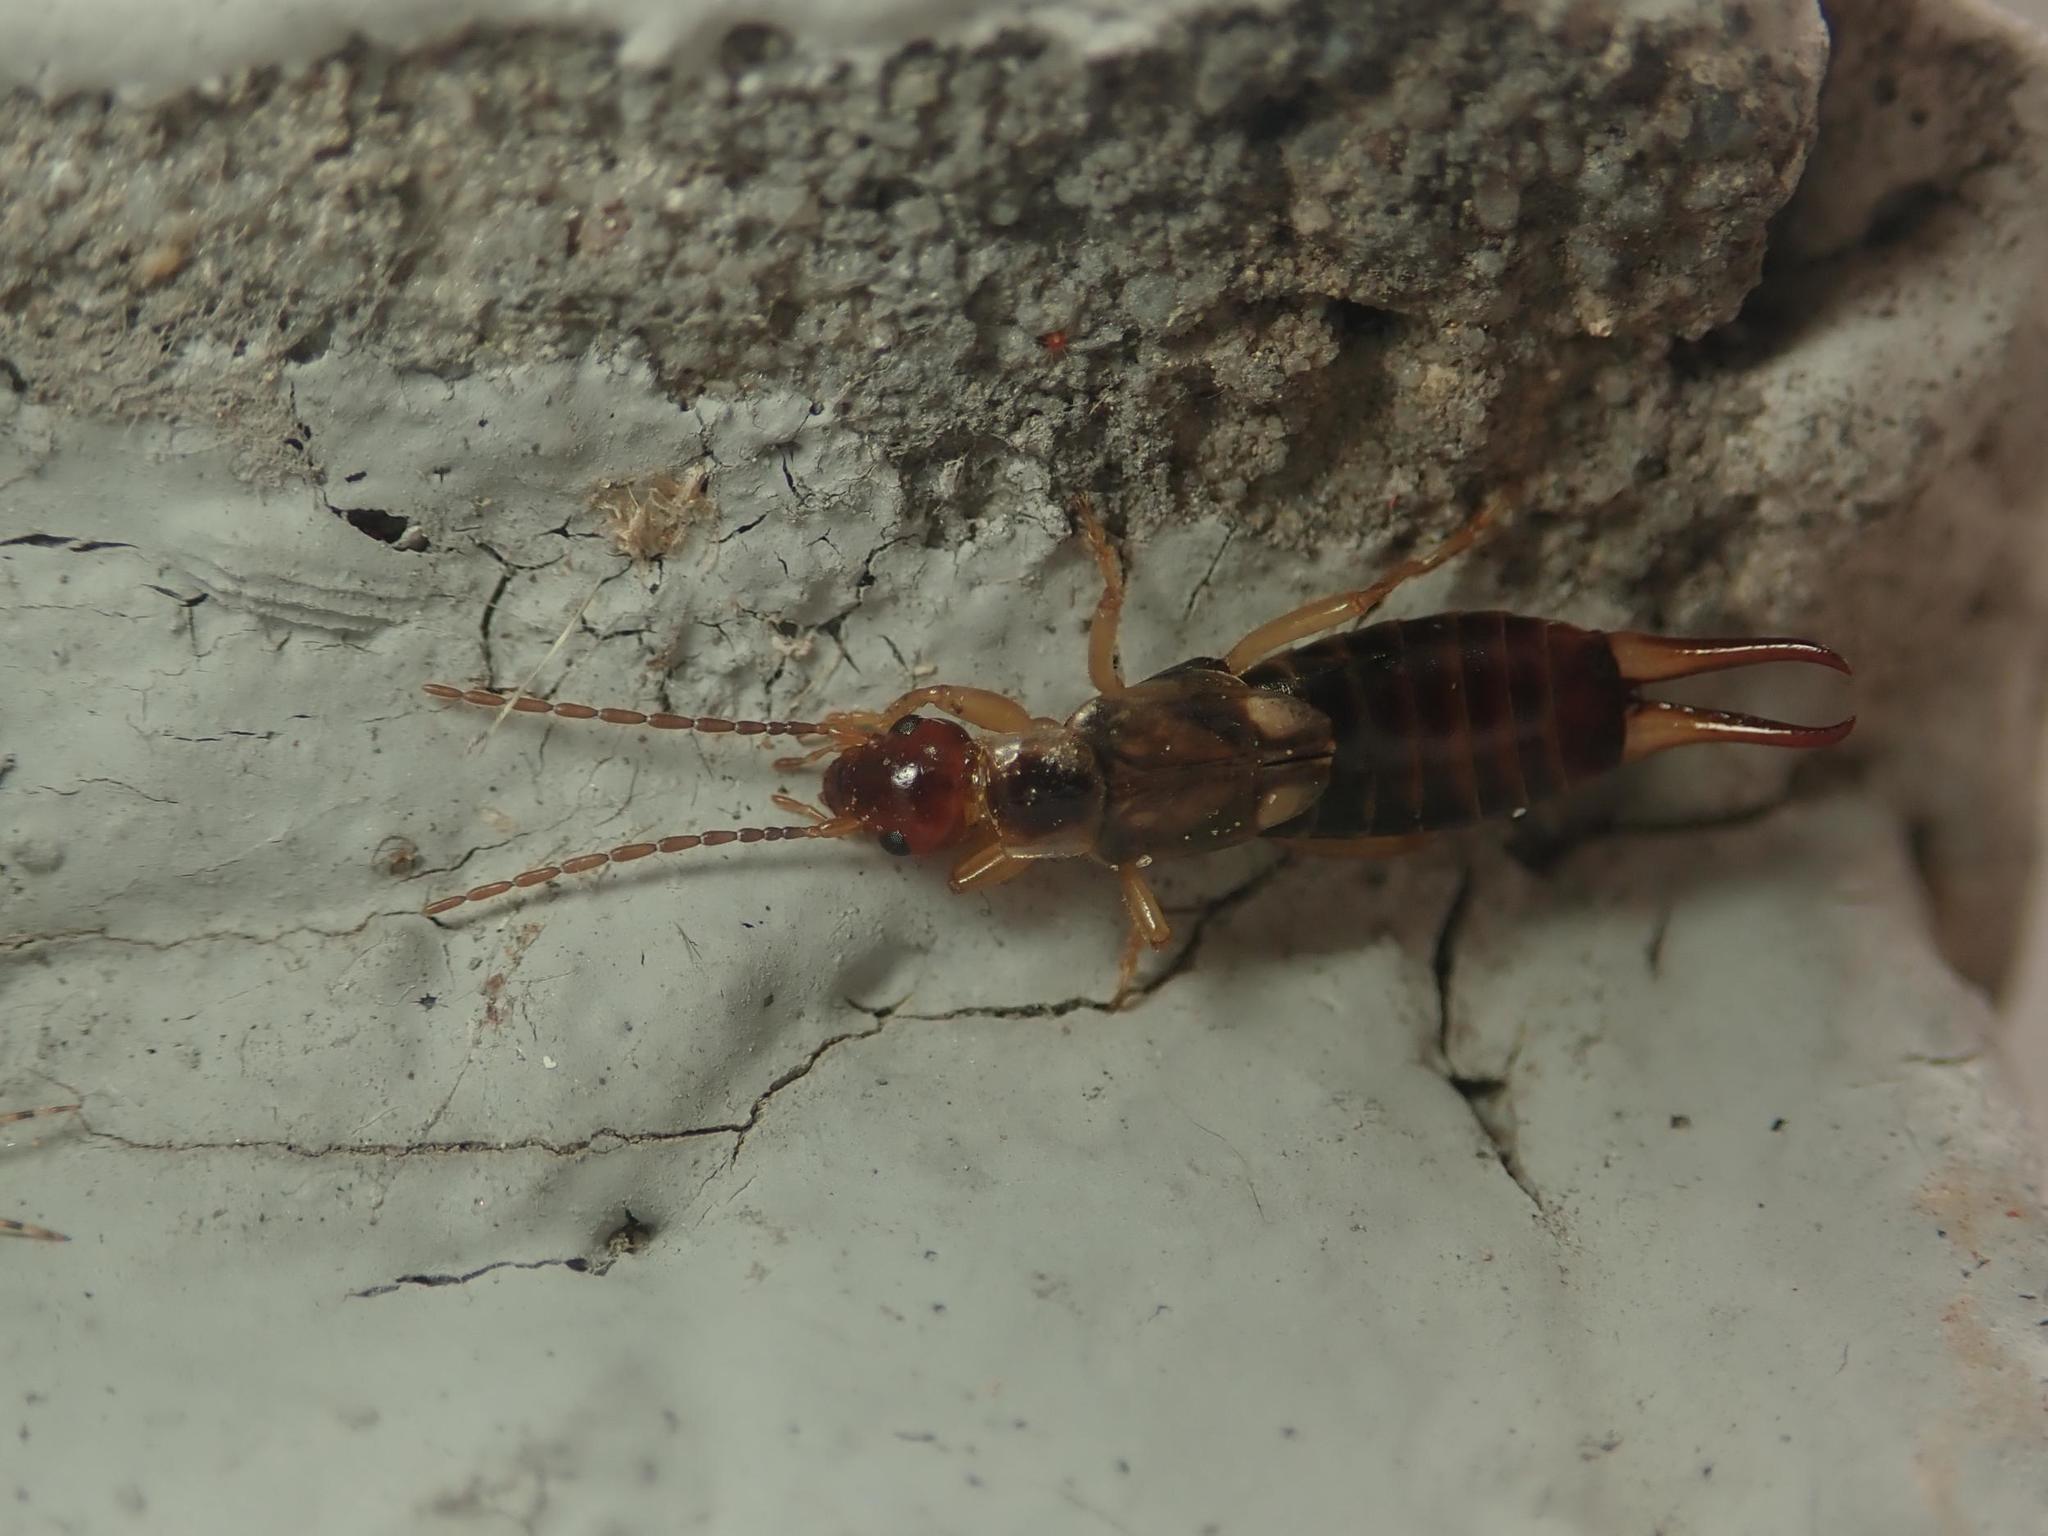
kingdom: Animalia
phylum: Arthropoda
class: Insecta
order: Dermaptera
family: Forficulidae
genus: Forficula
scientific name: Forficula
